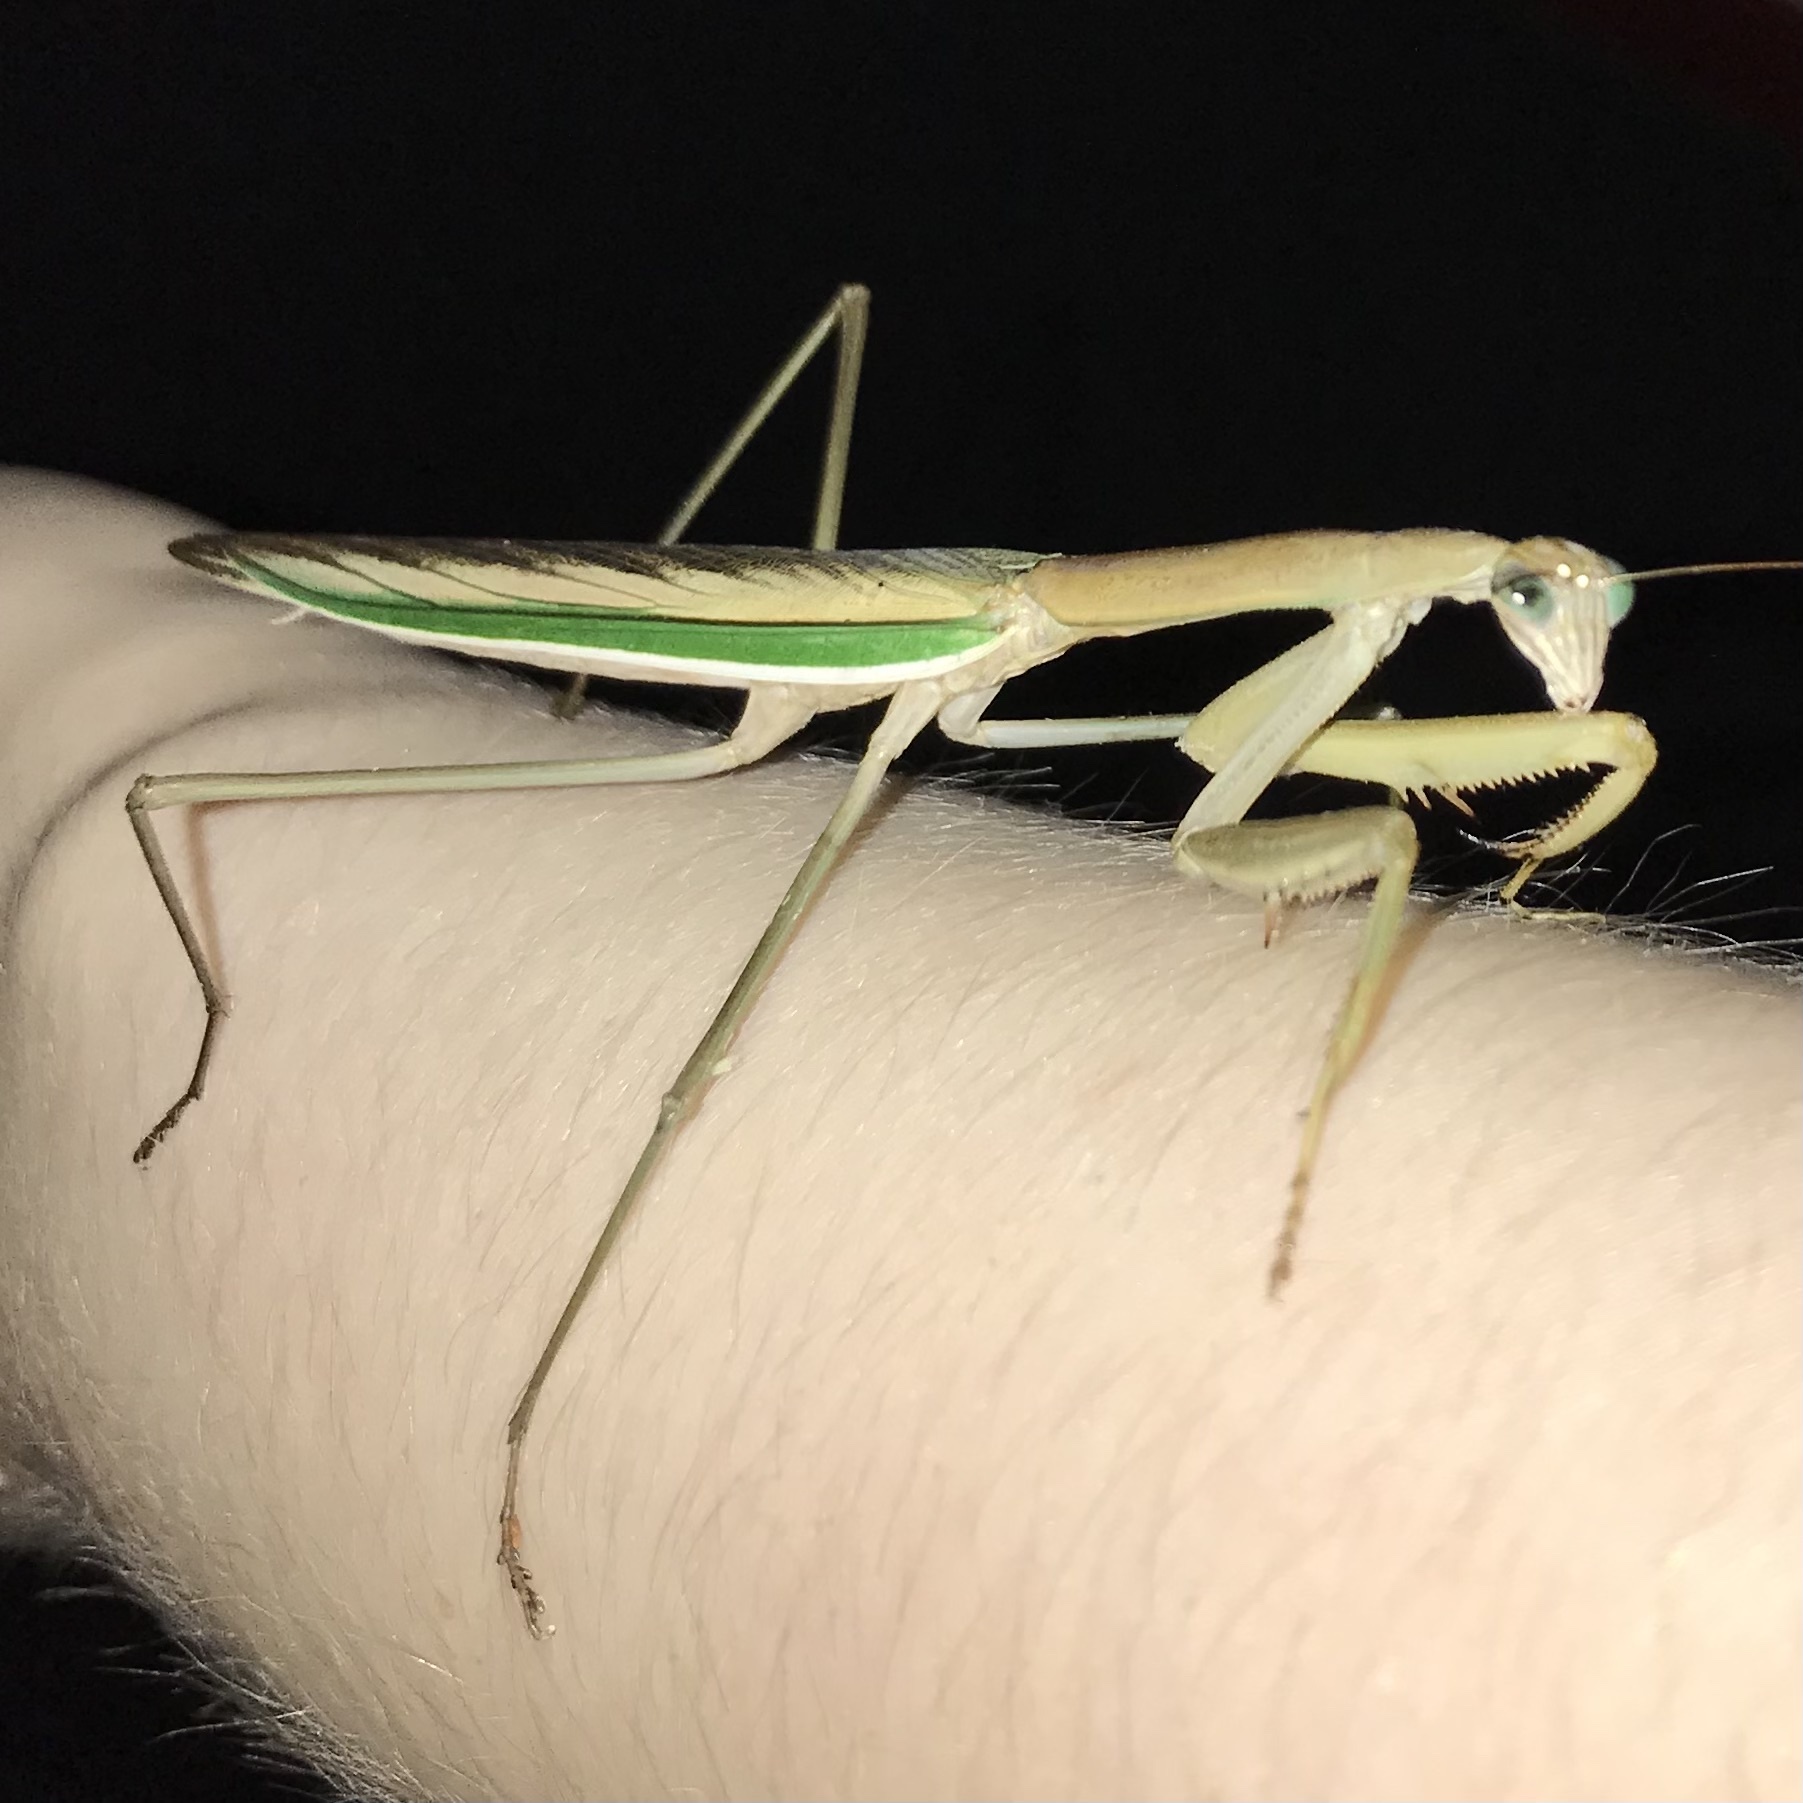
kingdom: Animalia
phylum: Arthropoda
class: Insecta
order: Mantodea
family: Mantidae
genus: Tenodera
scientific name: Tenodera australasiae
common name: Purple-winged mantis
